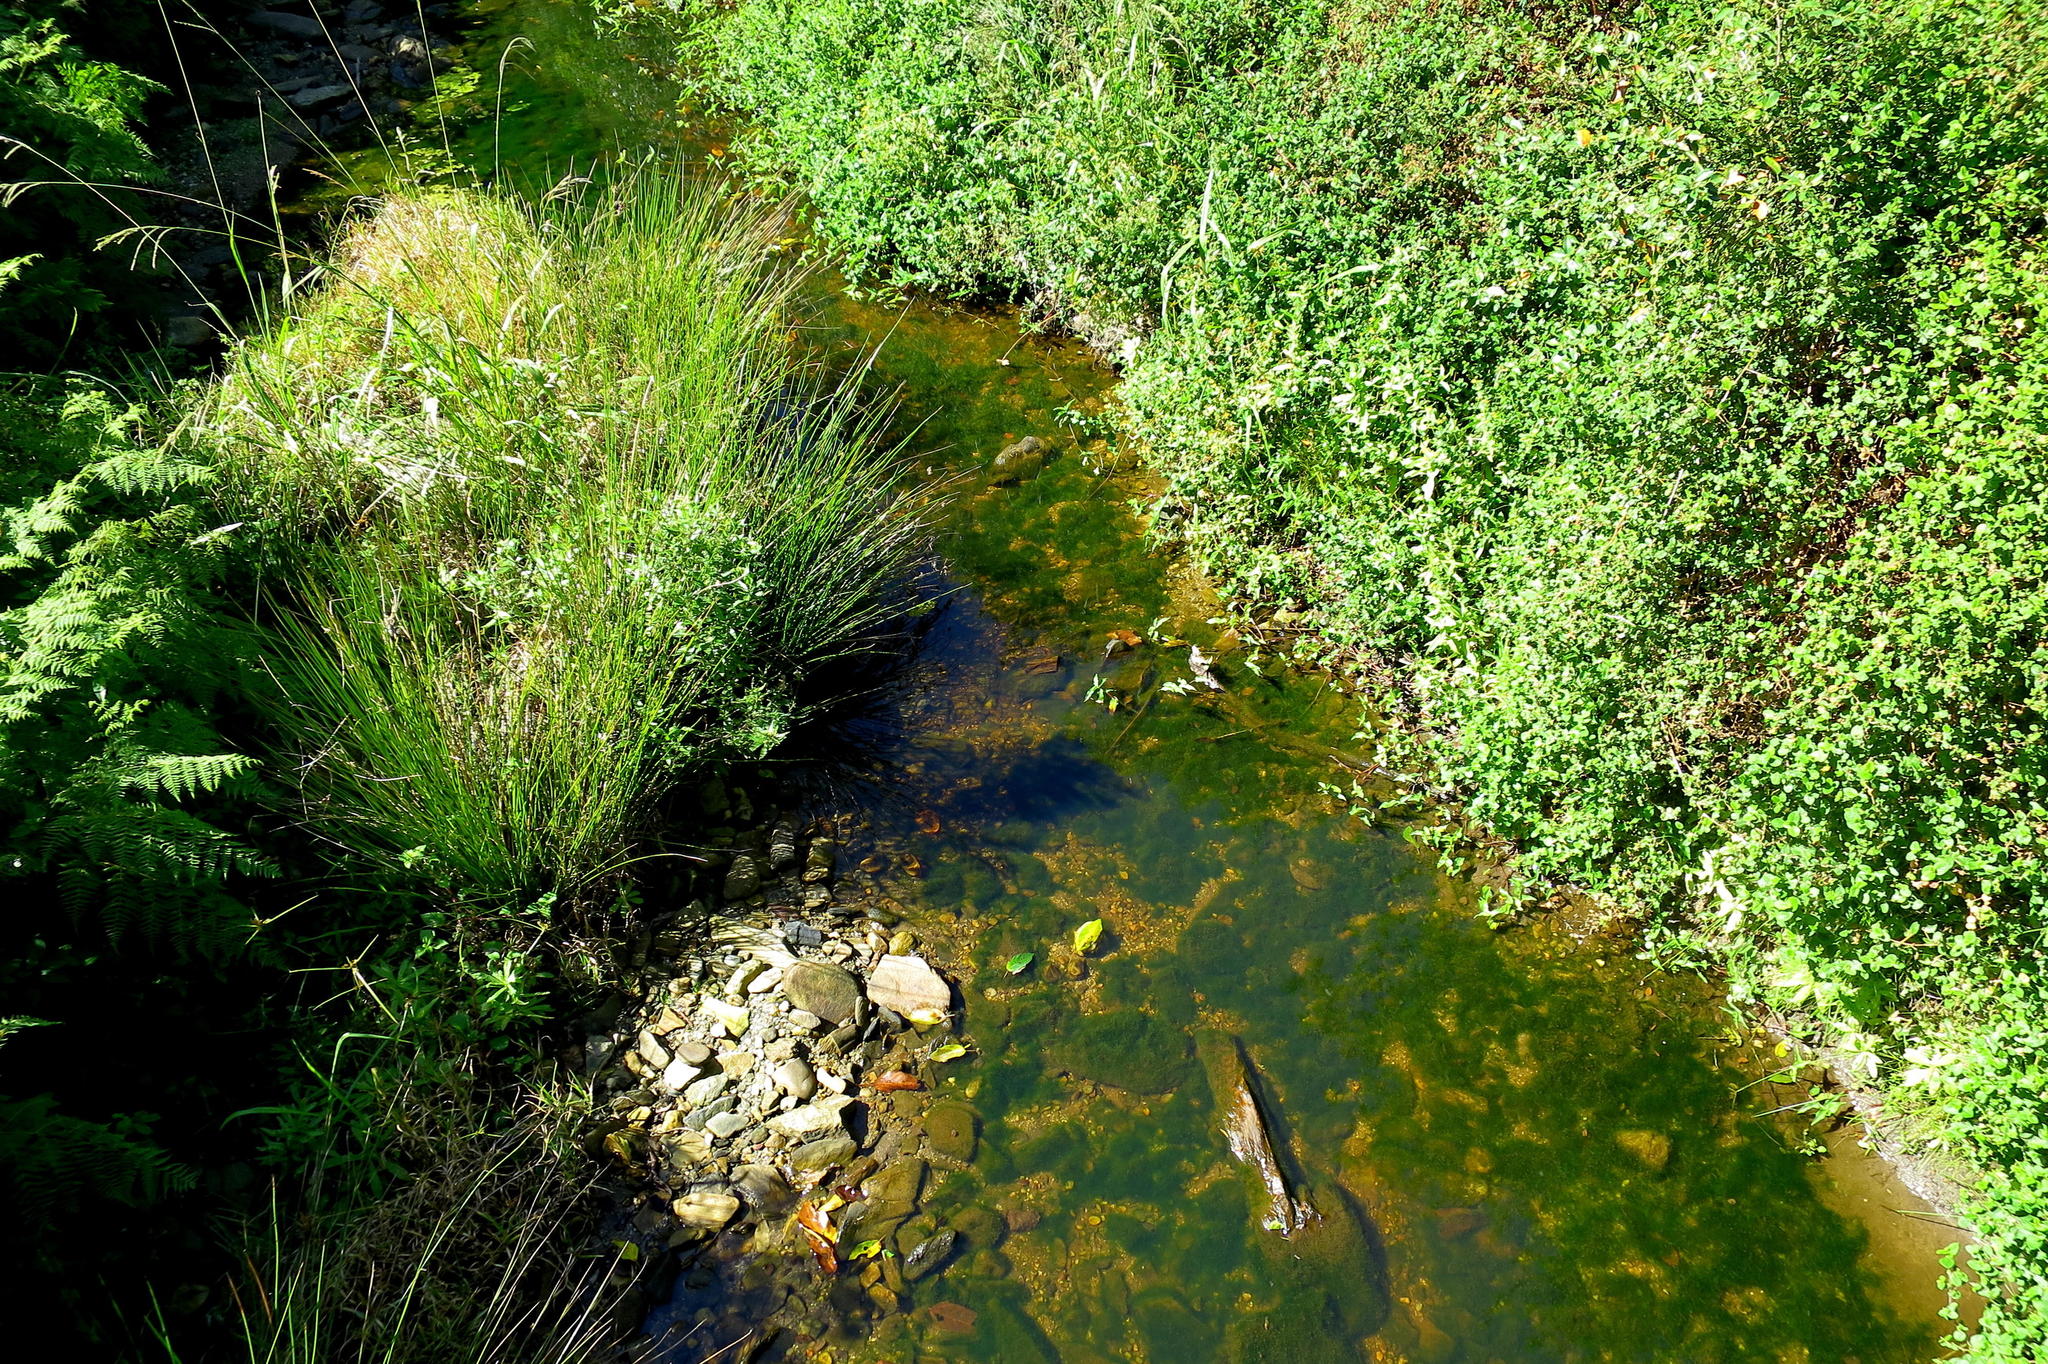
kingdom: Plantae
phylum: Tracheophyta
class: Magnoliopsida
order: Rosales
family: Rosaceae
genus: Cliffortia
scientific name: Cliffortia odorata
